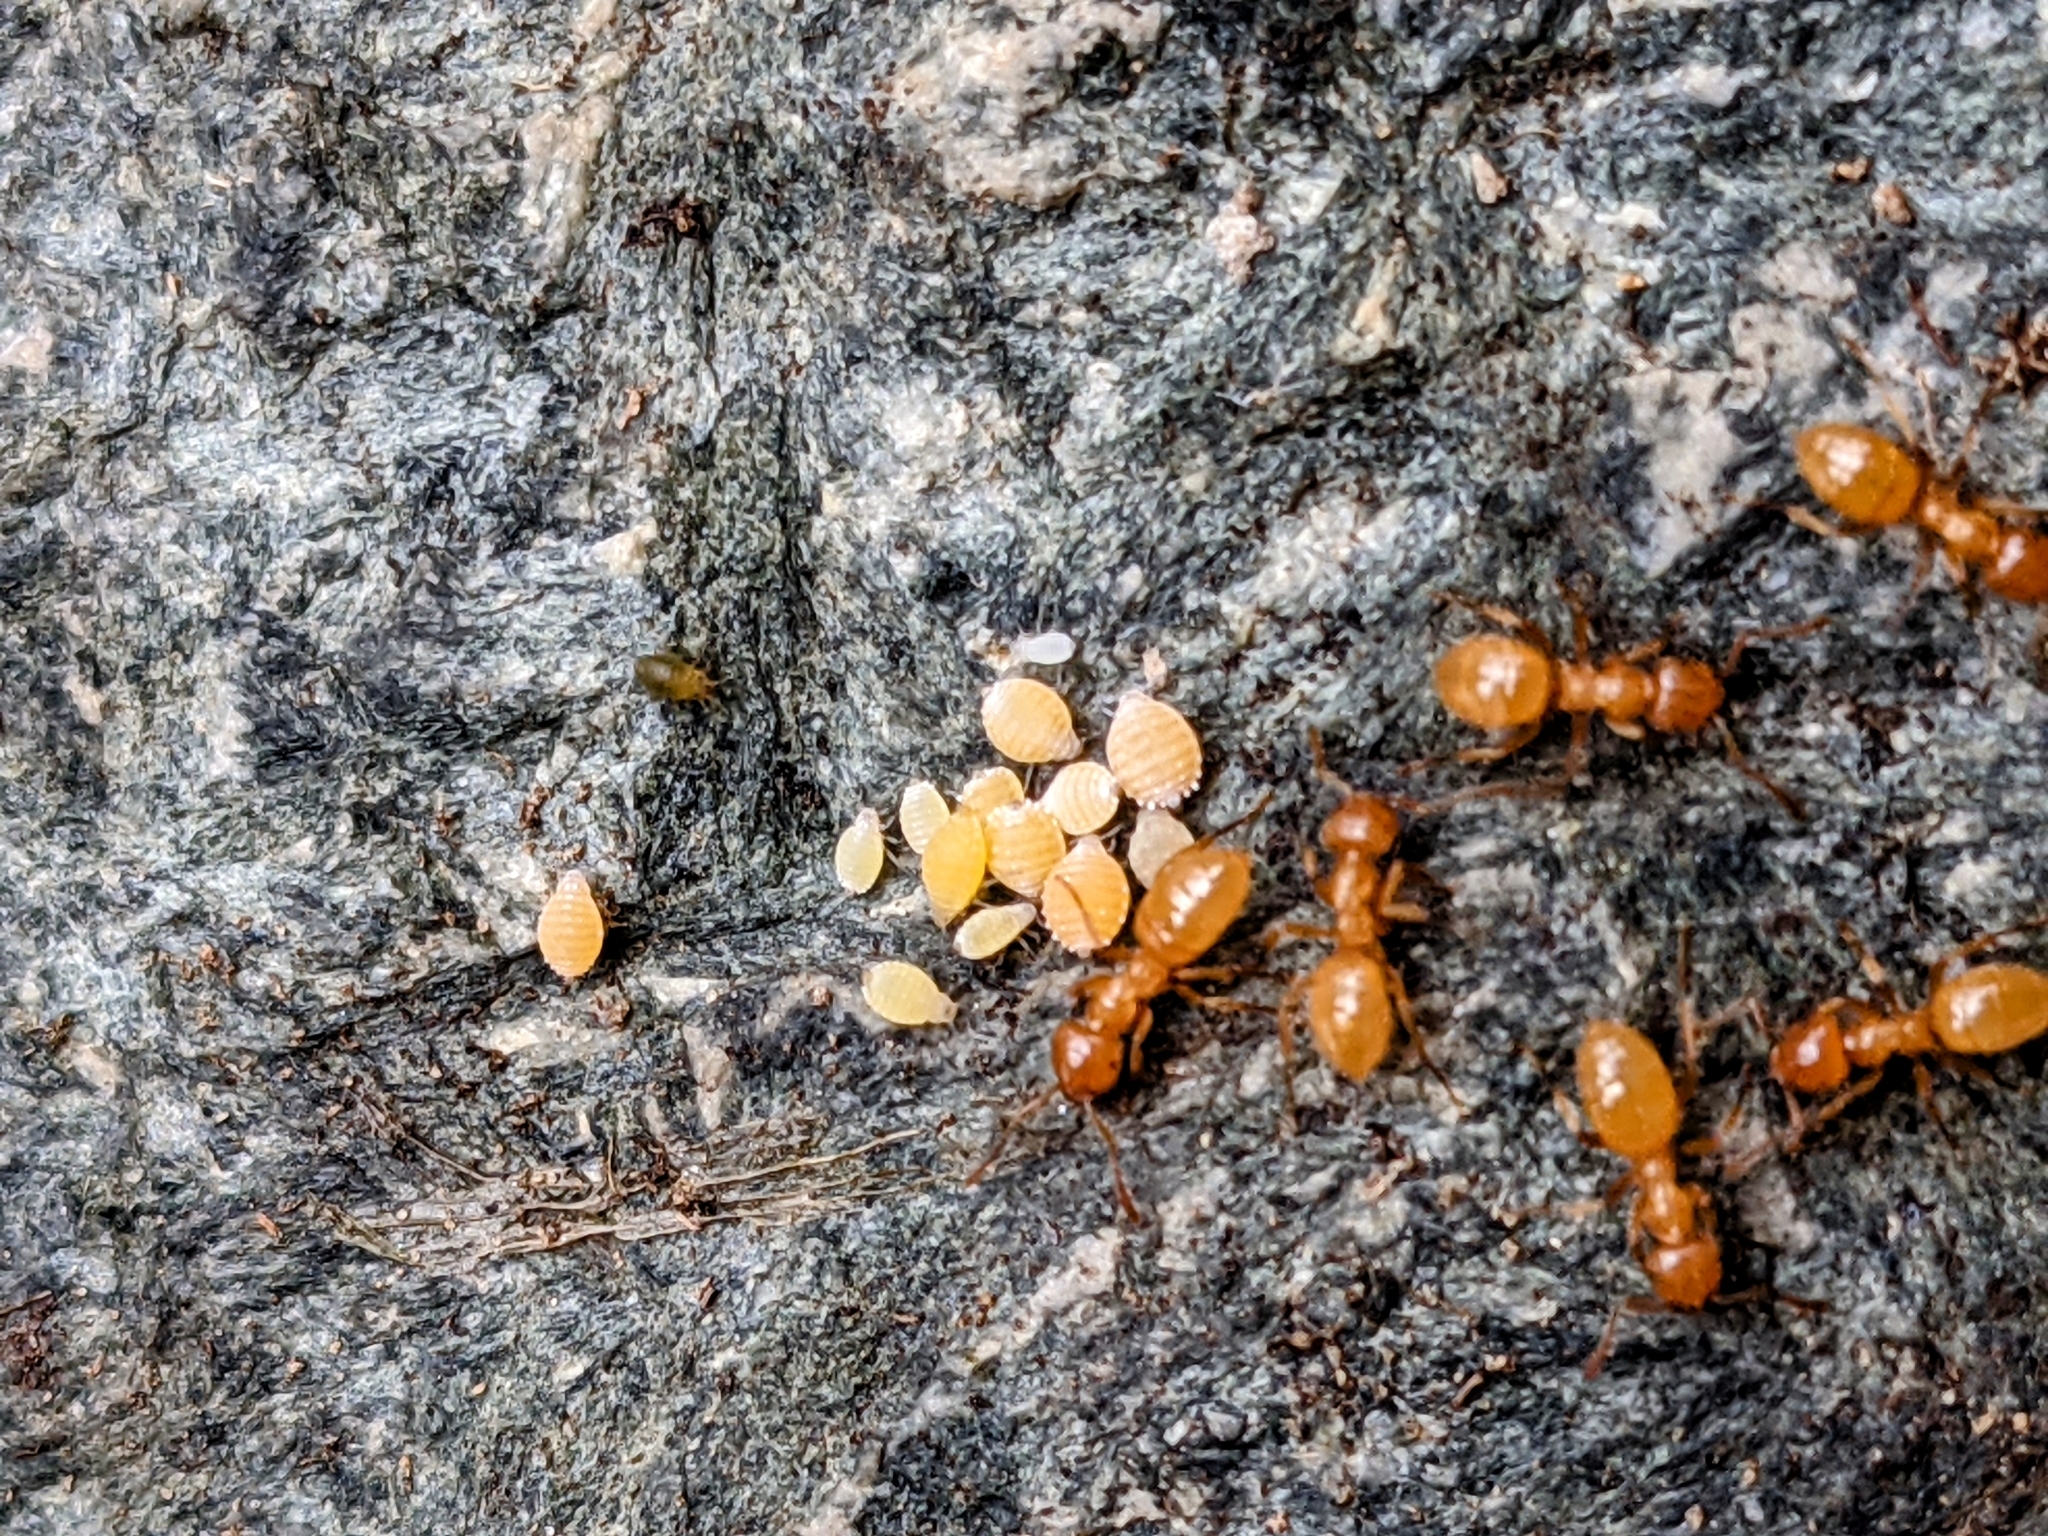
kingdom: Animalia
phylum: Arthropoda
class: Insecta
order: Hymenoptera
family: Formicidae
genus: Acanthomyops
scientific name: Acanthomyops
